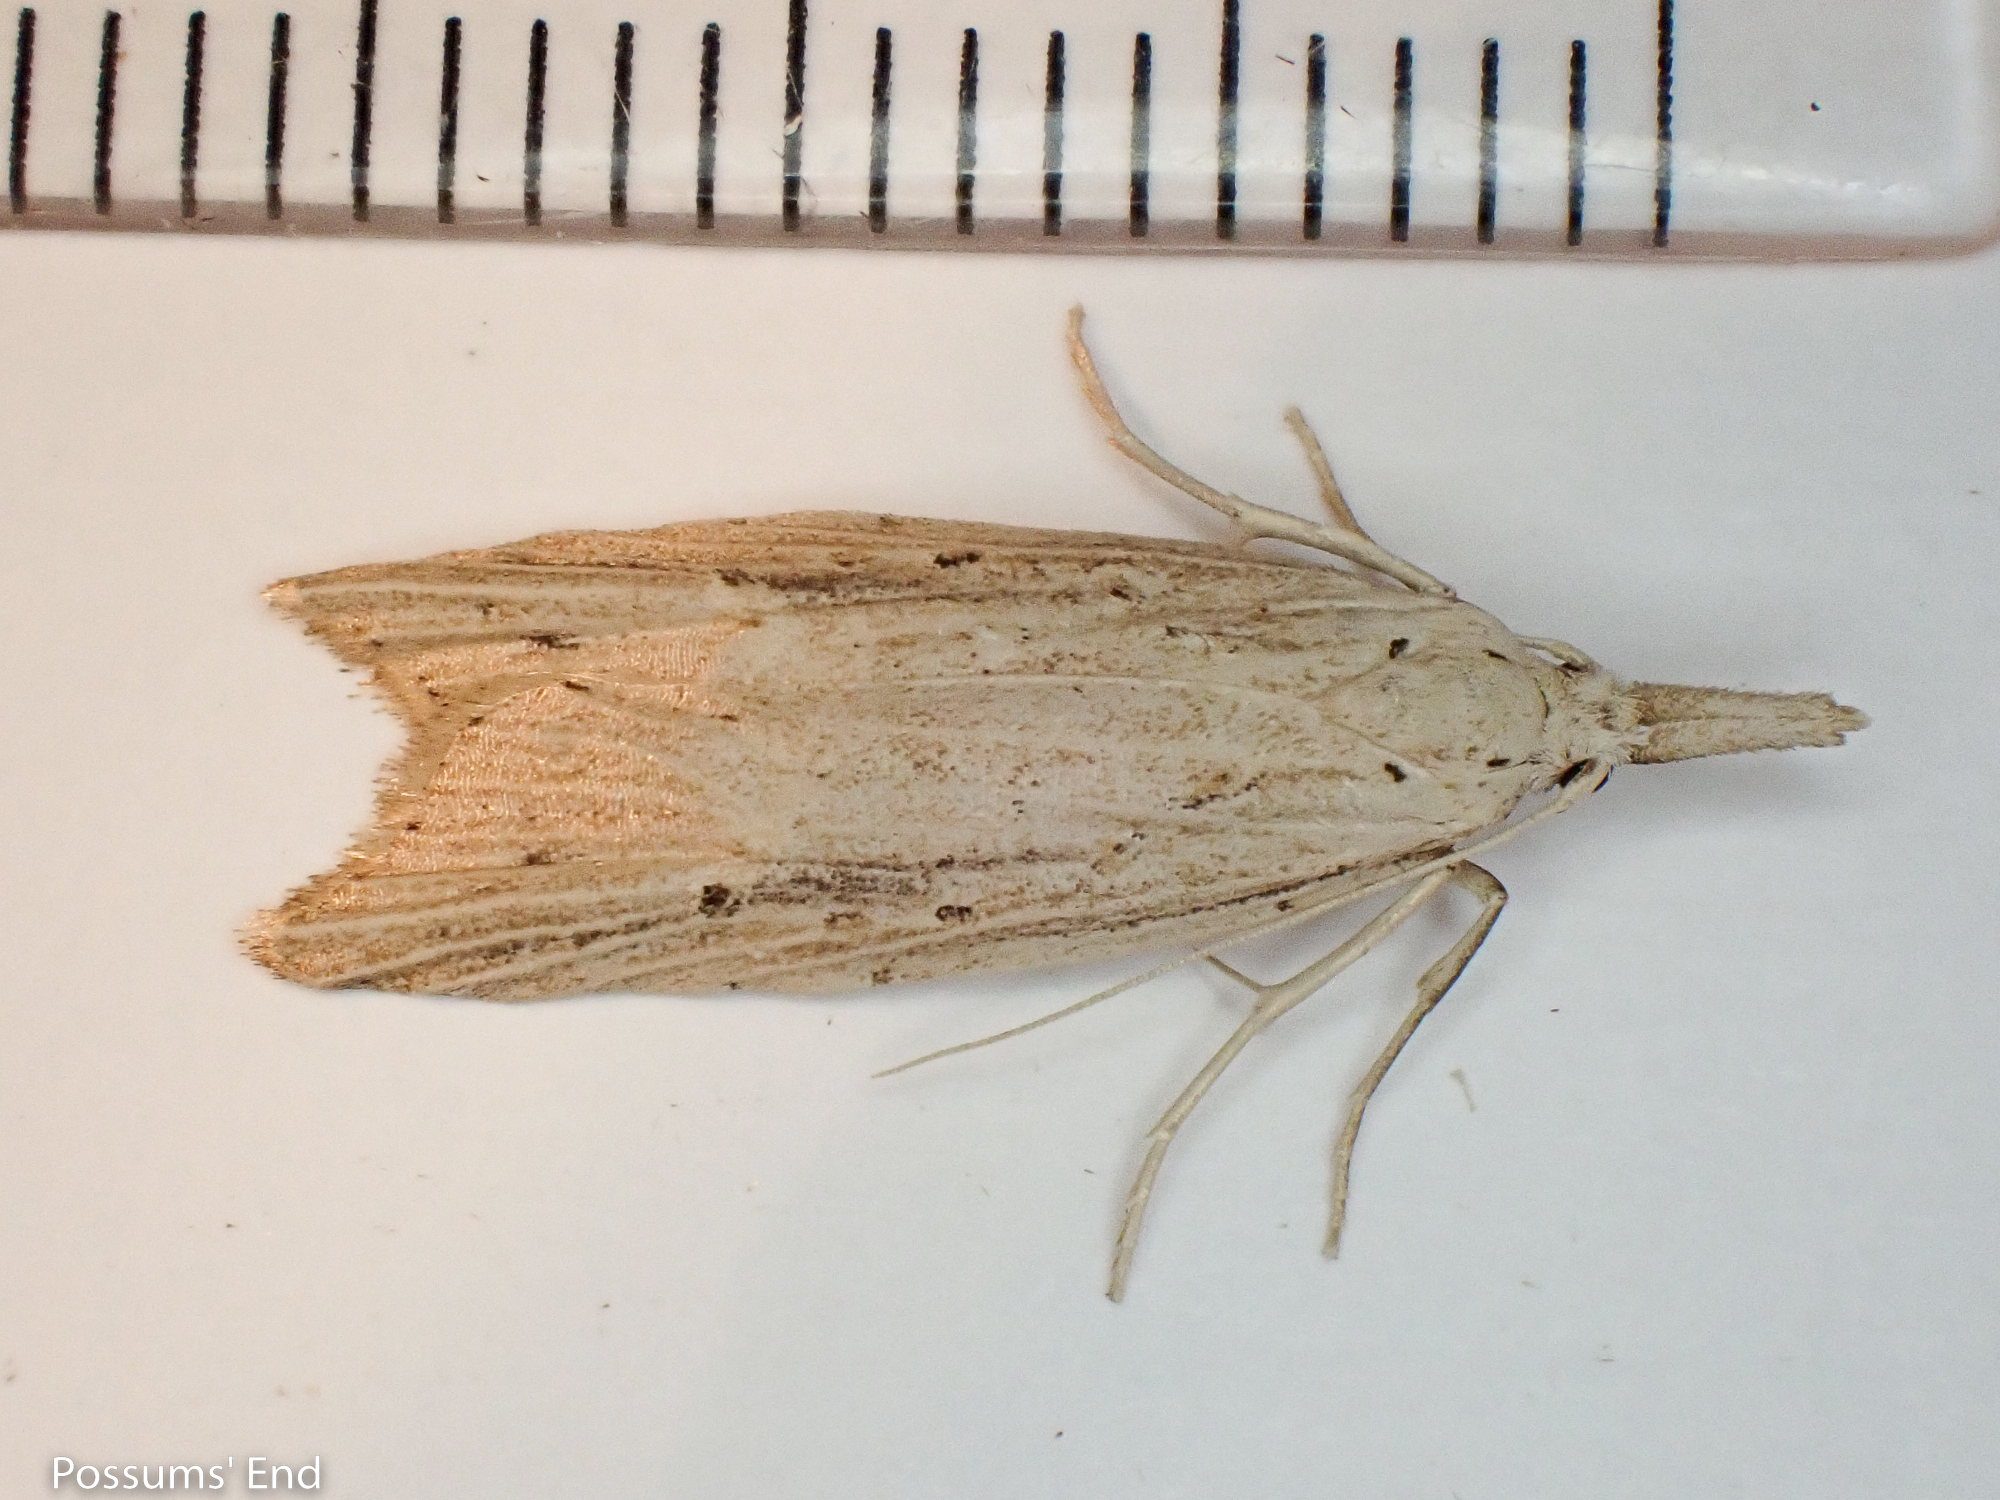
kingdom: Animalia
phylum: Arthropoda
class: Insecta
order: Lepidoptera
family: Carposinidae
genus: Carposina
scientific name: Carposina Heterocrossa exochana
